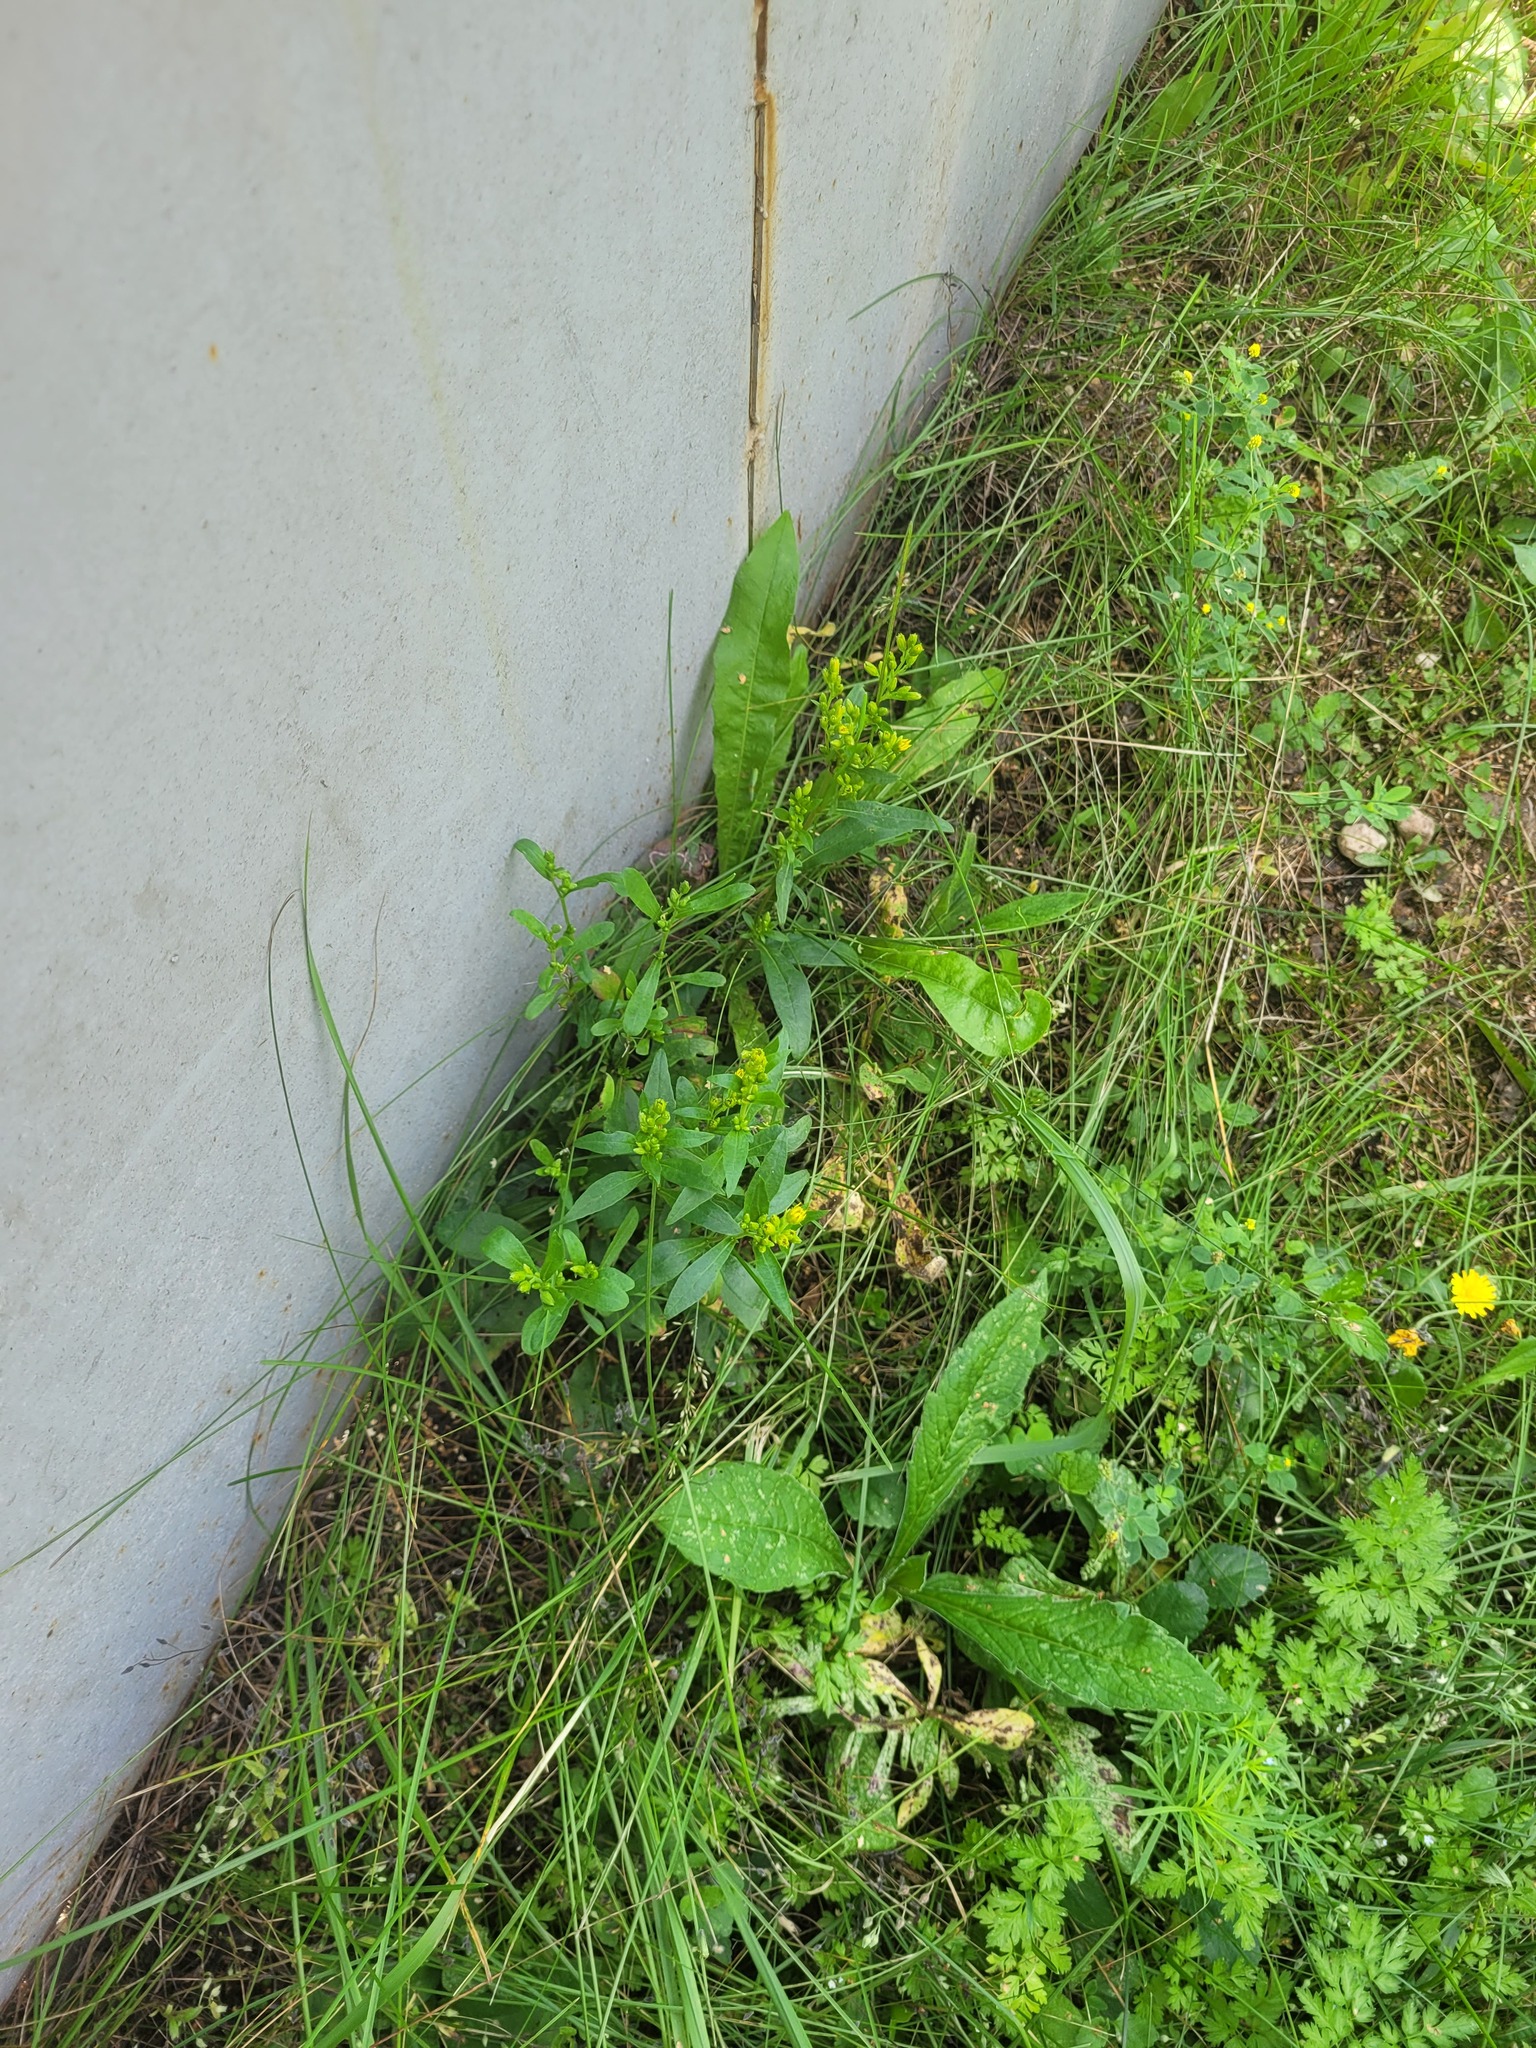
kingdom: Plantae
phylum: Tracheophyta
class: Magnoliopsida
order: Asterales
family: Asteraceae
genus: Solidago
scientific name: Solidago virgaurea
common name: Goldenrod
